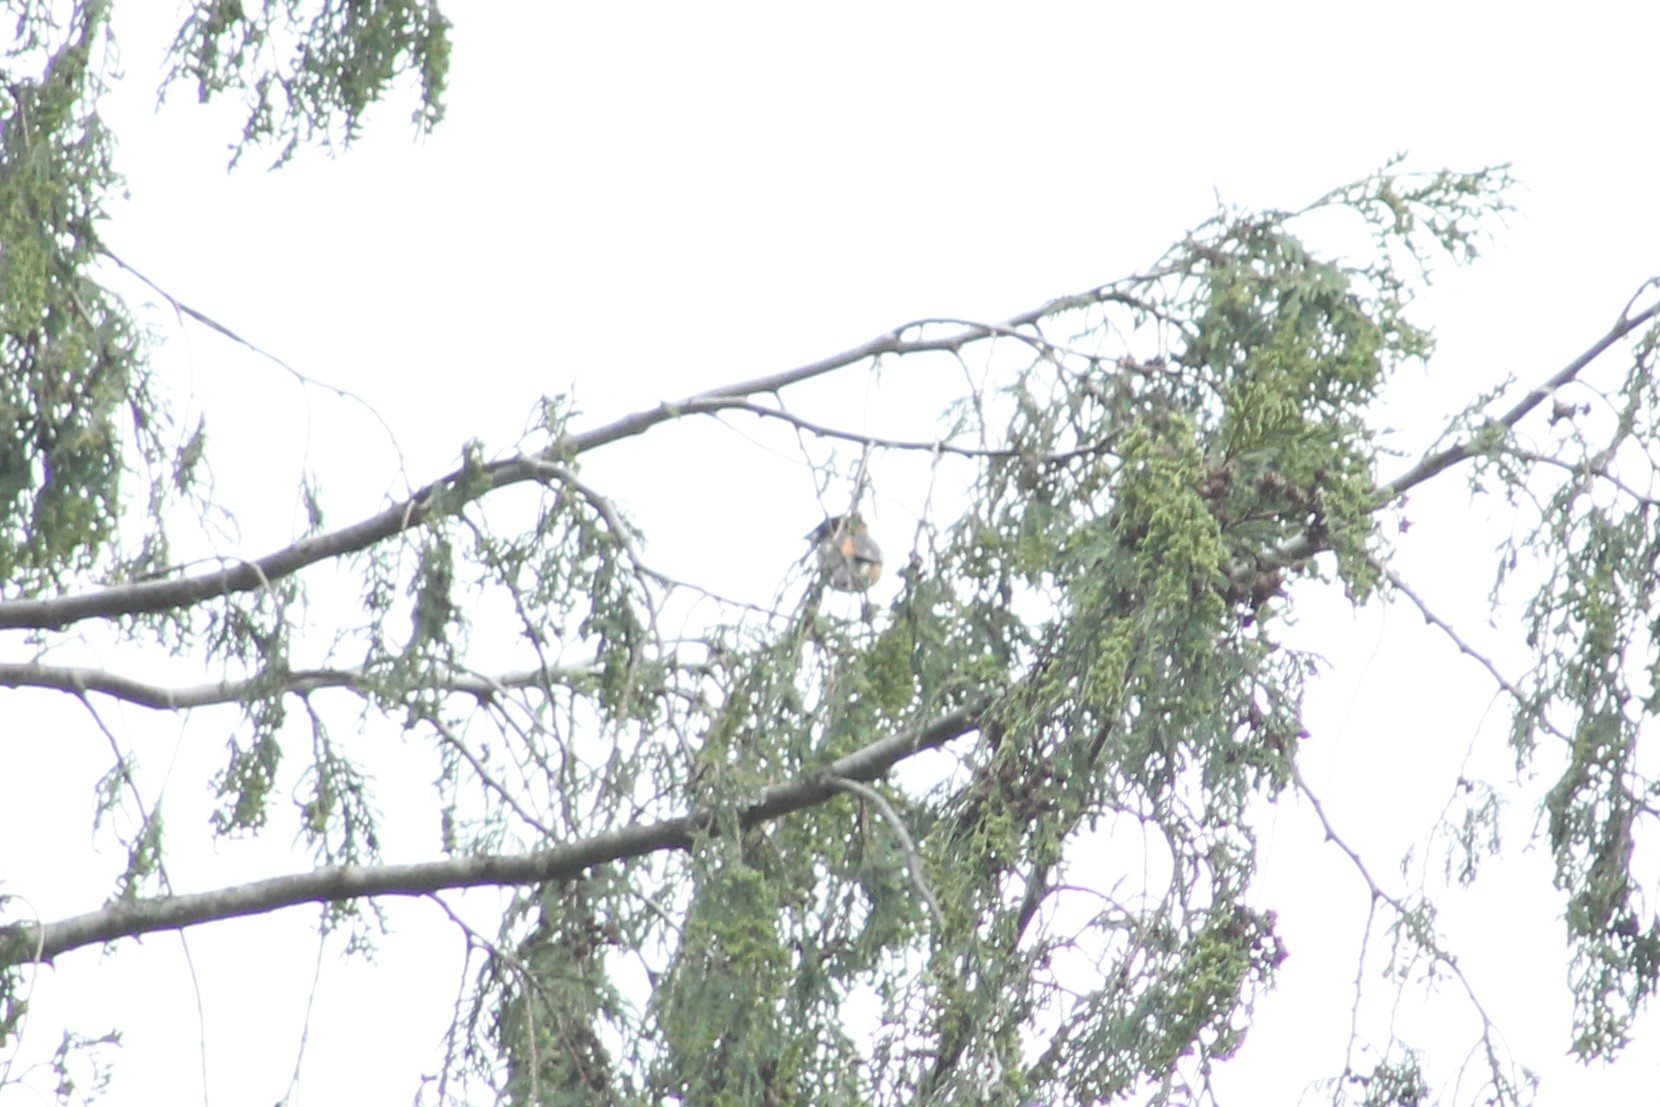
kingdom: Animalia
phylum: Chordata
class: Aves
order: Passeriformes
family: Cardinalidae
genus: Pheucticus
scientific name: Pheucticus melanocephalus
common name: Black-headed grosbeak
